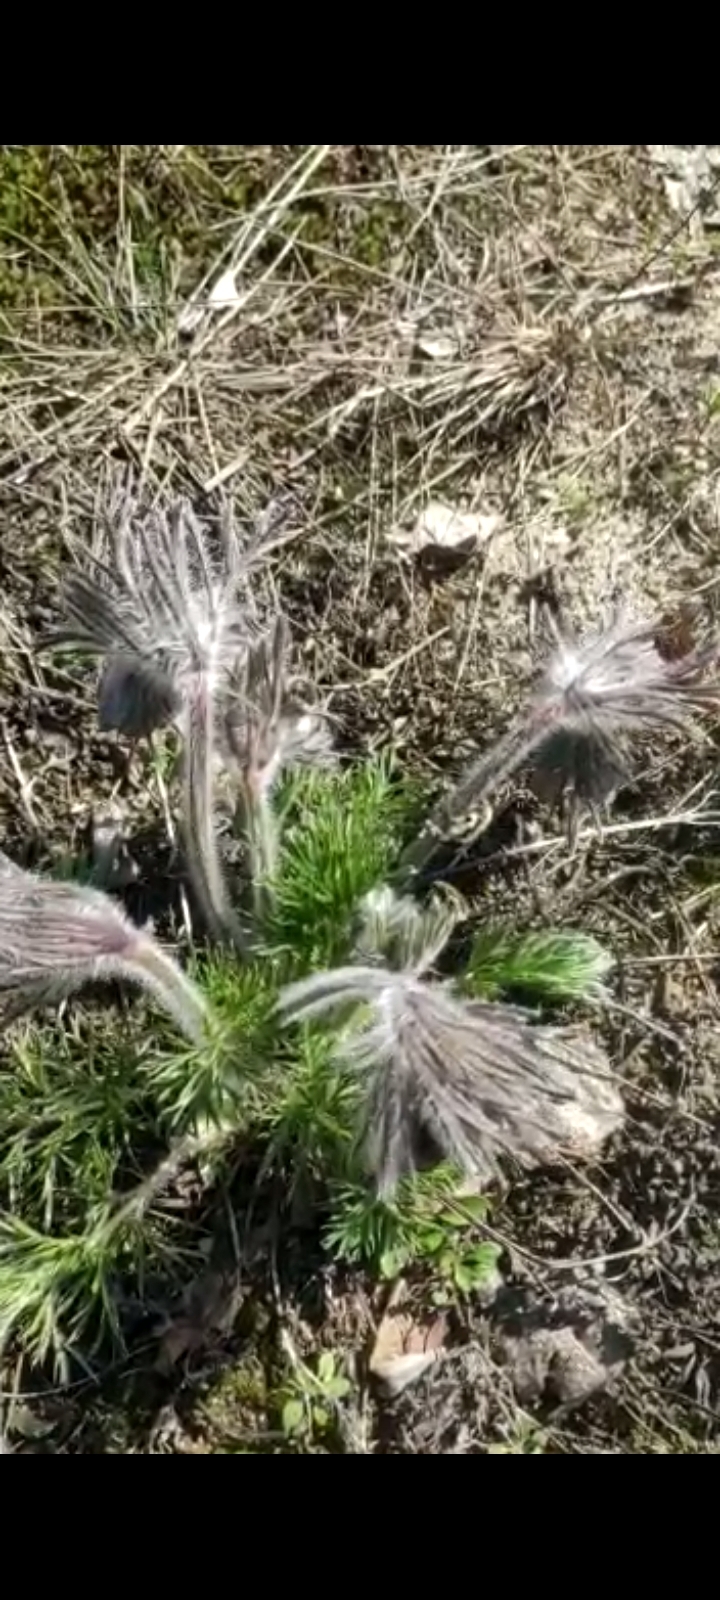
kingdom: Plantae
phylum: Tracheophyta
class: Magnoliopsida
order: Ranunculales
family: Ranunculaceae
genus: Pulsatilla
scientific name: Pulsatilla pratensis
